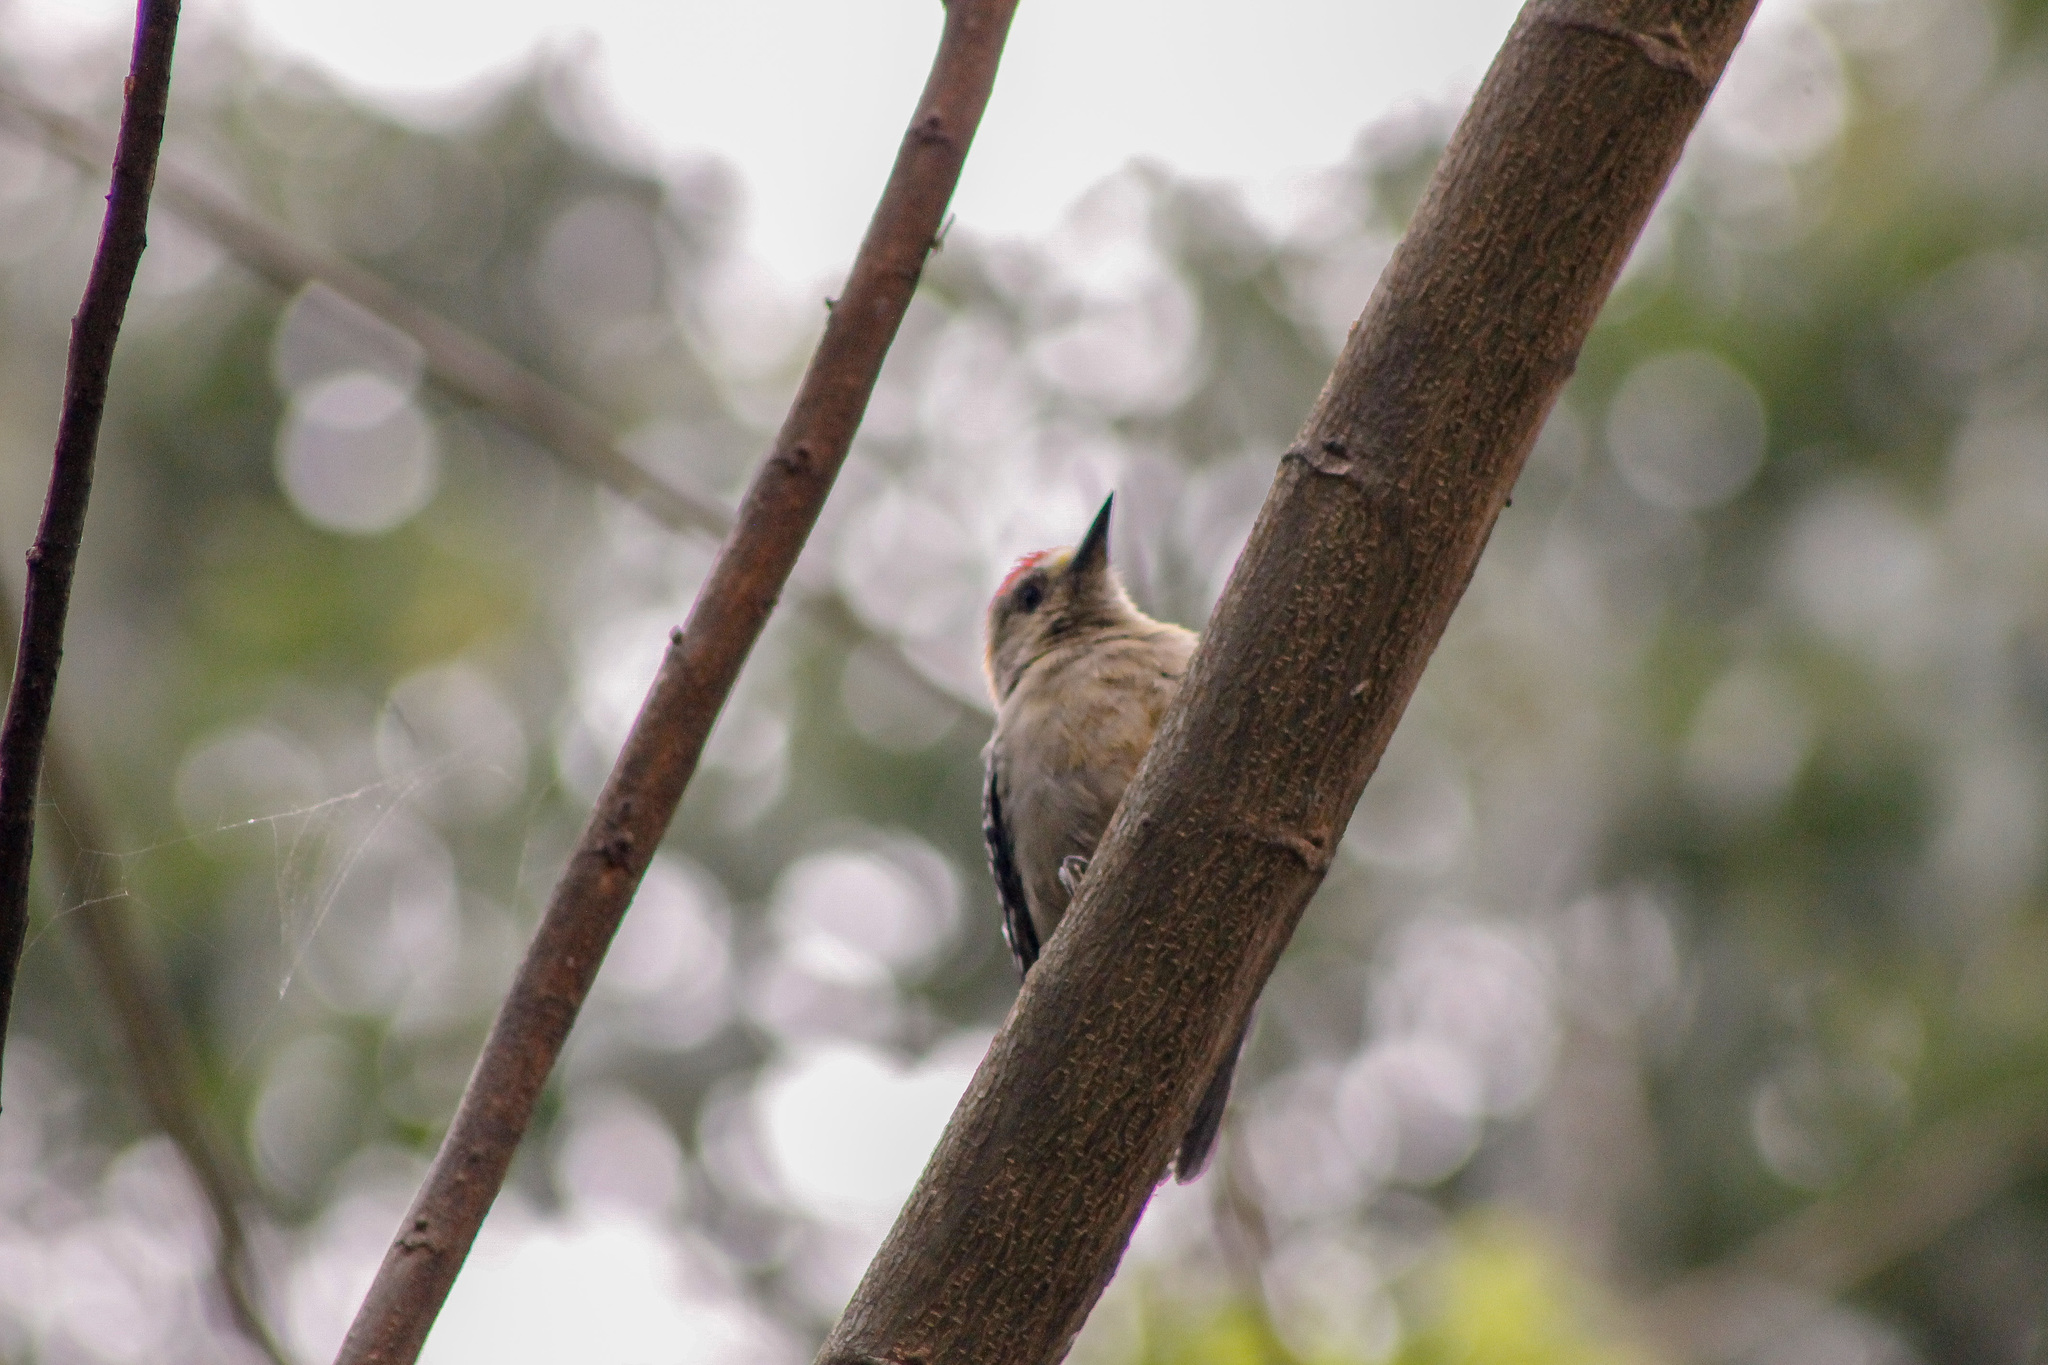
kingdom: Animalia
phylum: Chordata
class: Aves
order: Piciformes
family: Picidae
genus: Melanerpes
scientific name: Melanerpes rubricapillus
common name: Red-crowned woodpecker
